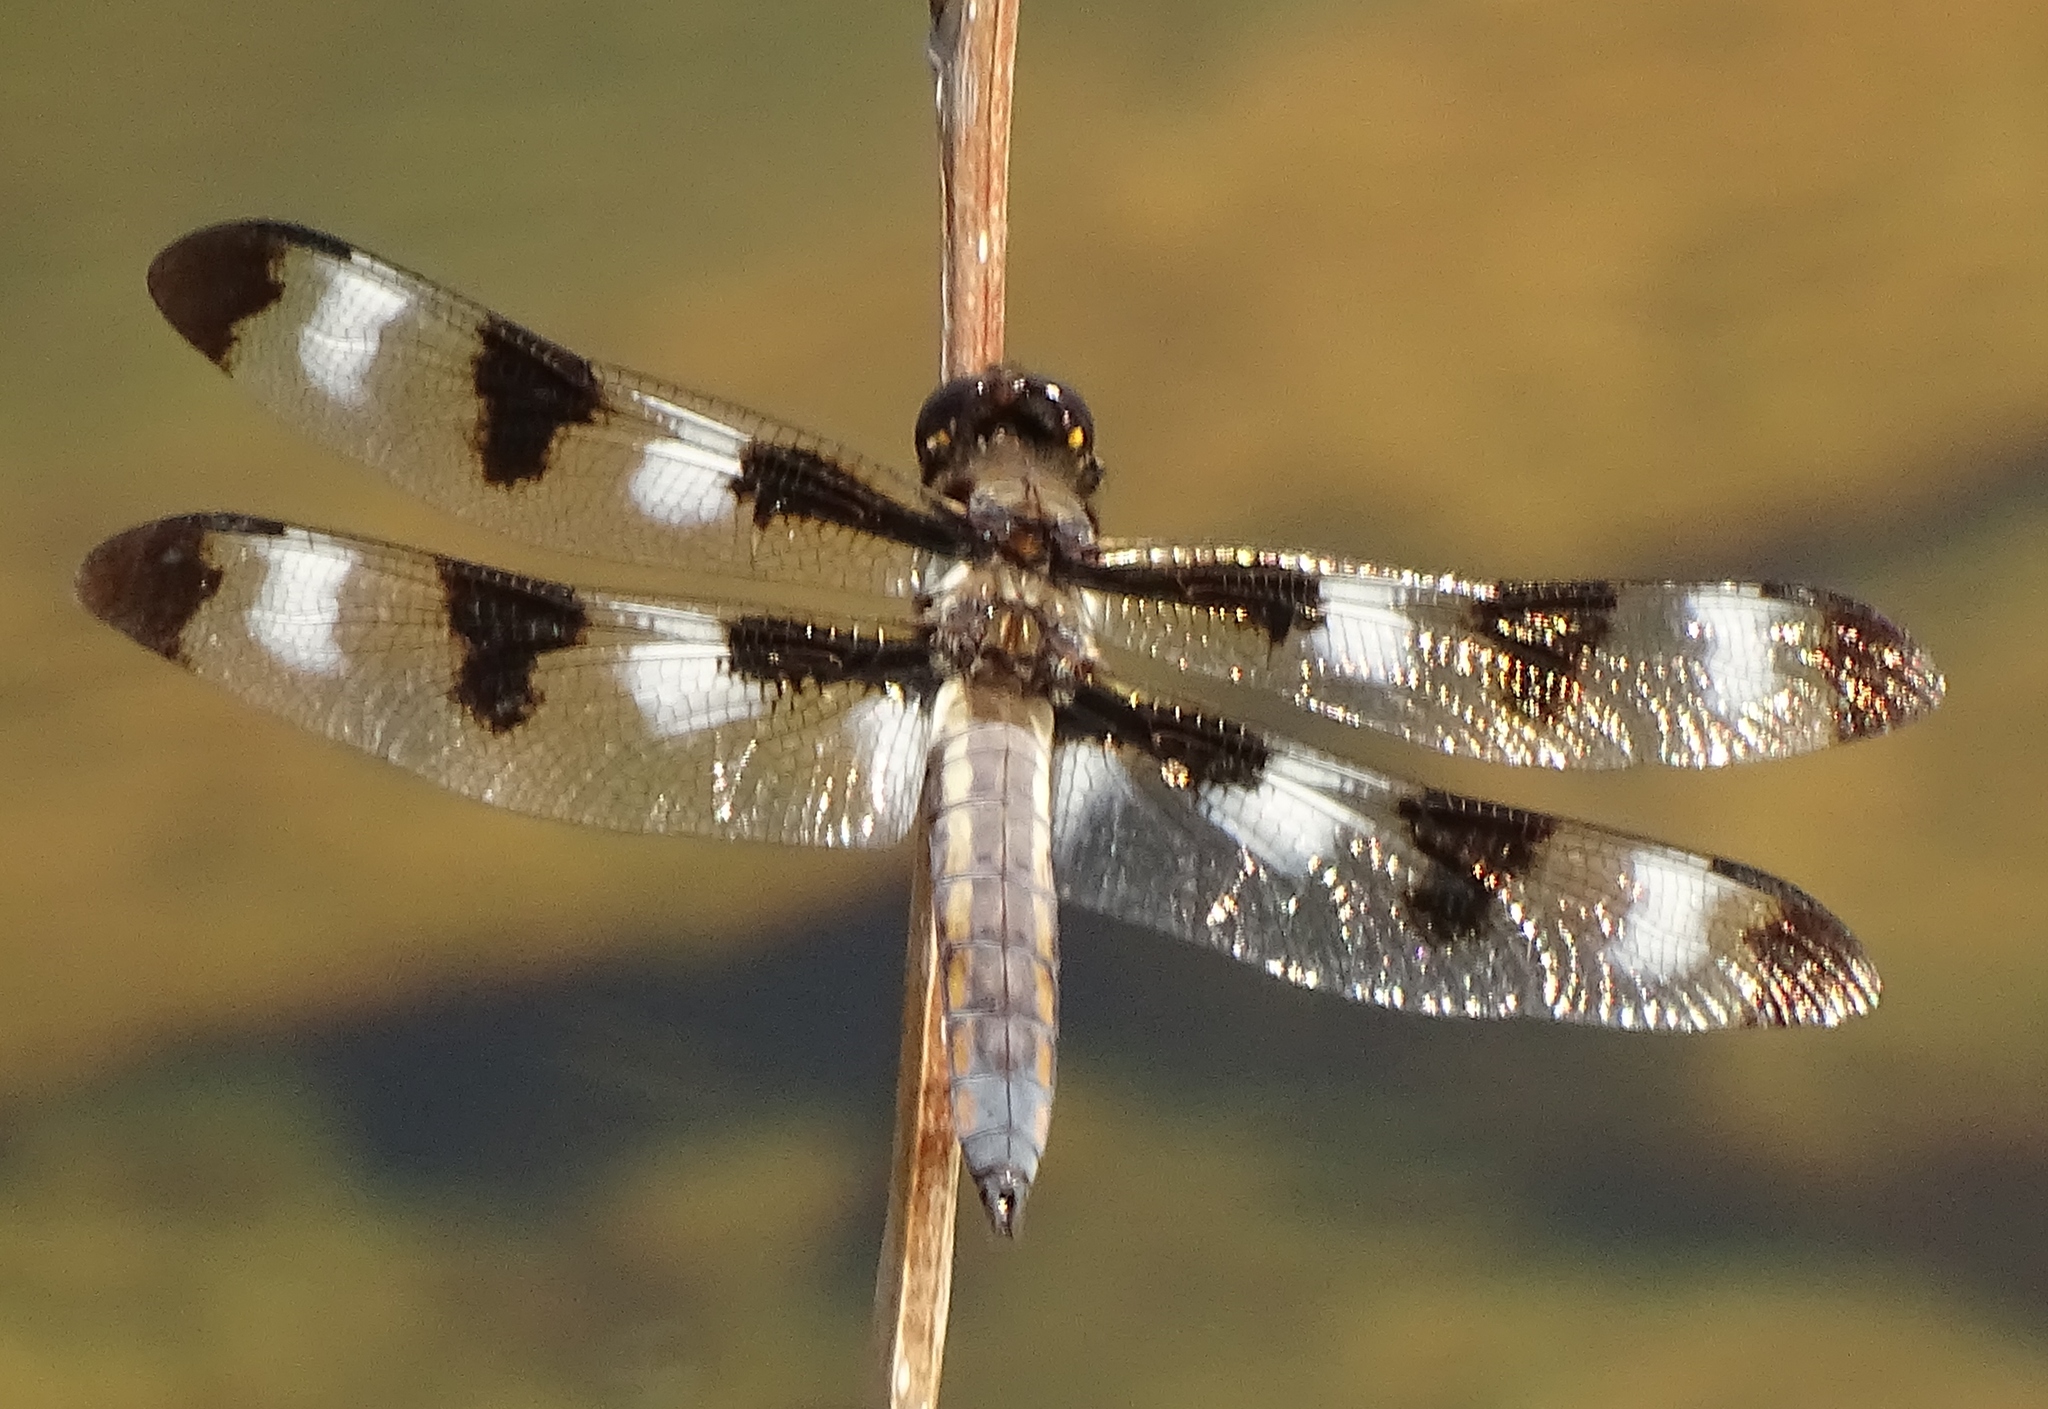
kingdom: Animalia
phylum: Arthropoda
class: Insecta
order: Odonata
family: Libellulidae
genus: Libellula
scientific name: Libellula pulchella
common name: Twelve-spotted skimmer
